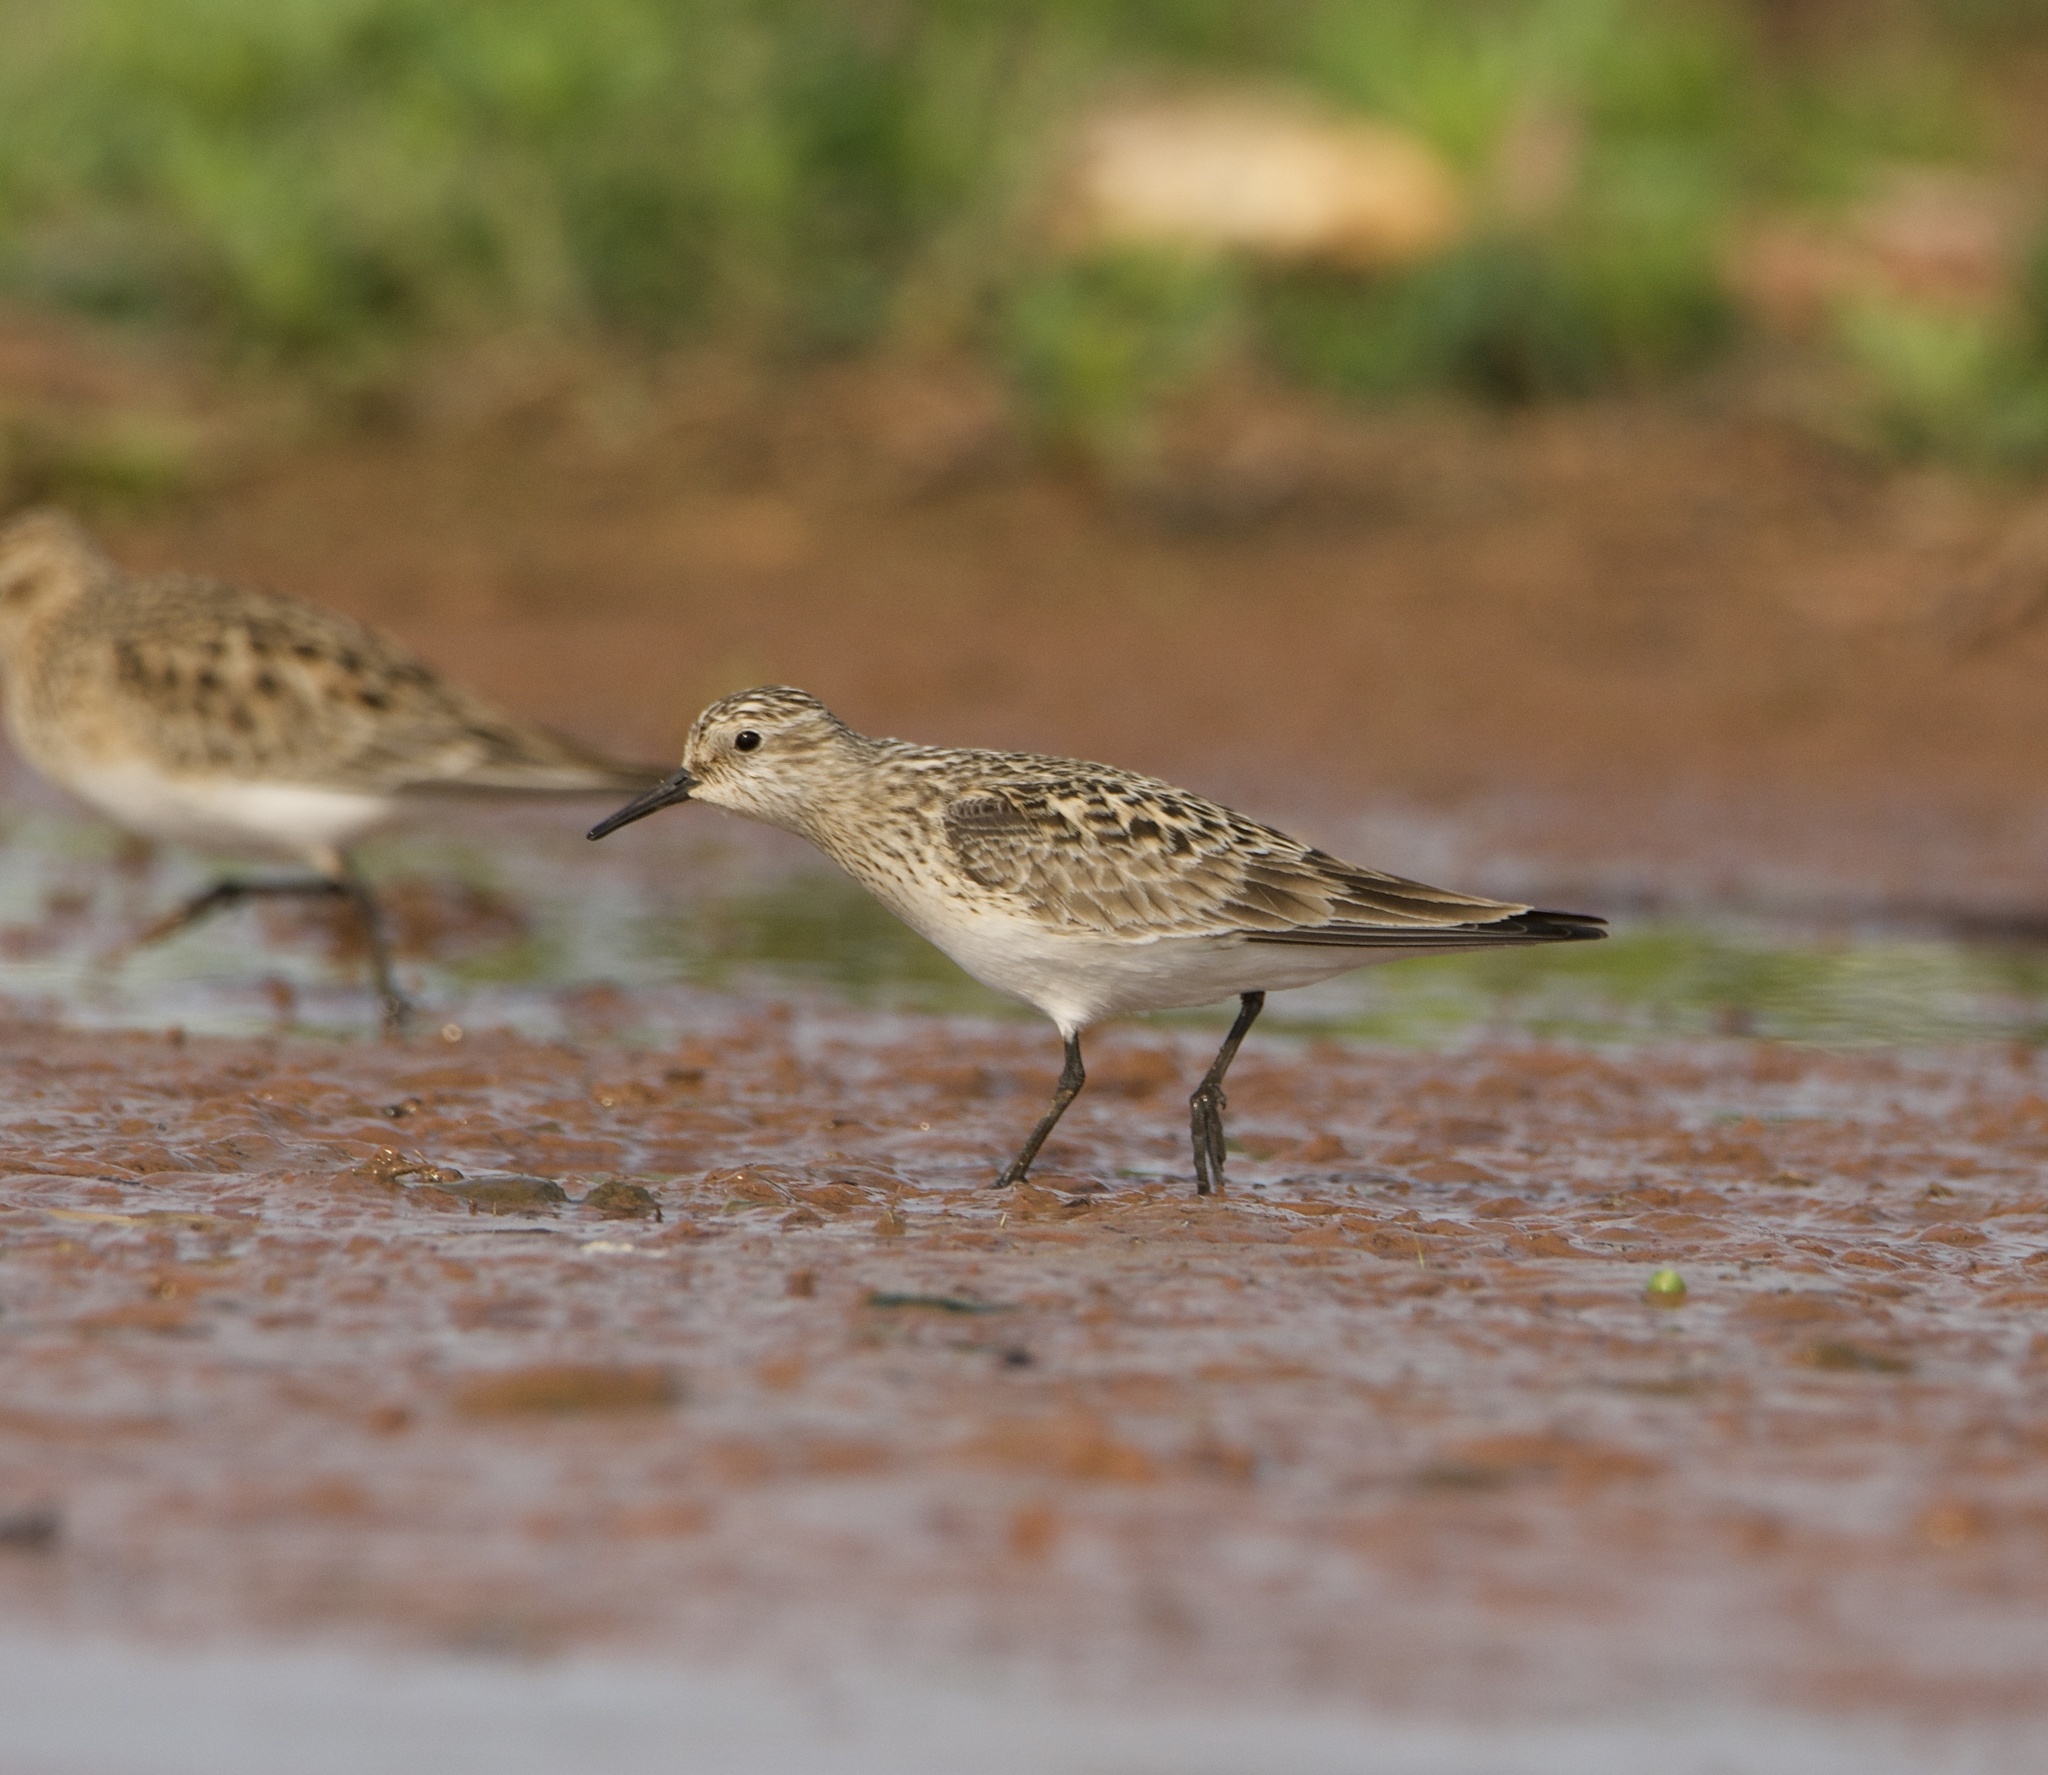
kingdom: Animalia
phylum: Chordata
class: Aves
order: Charadriiformes
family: Scolopacidae
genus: Calidris
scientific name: Calidris bairdii
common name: Baird's sandpiper
